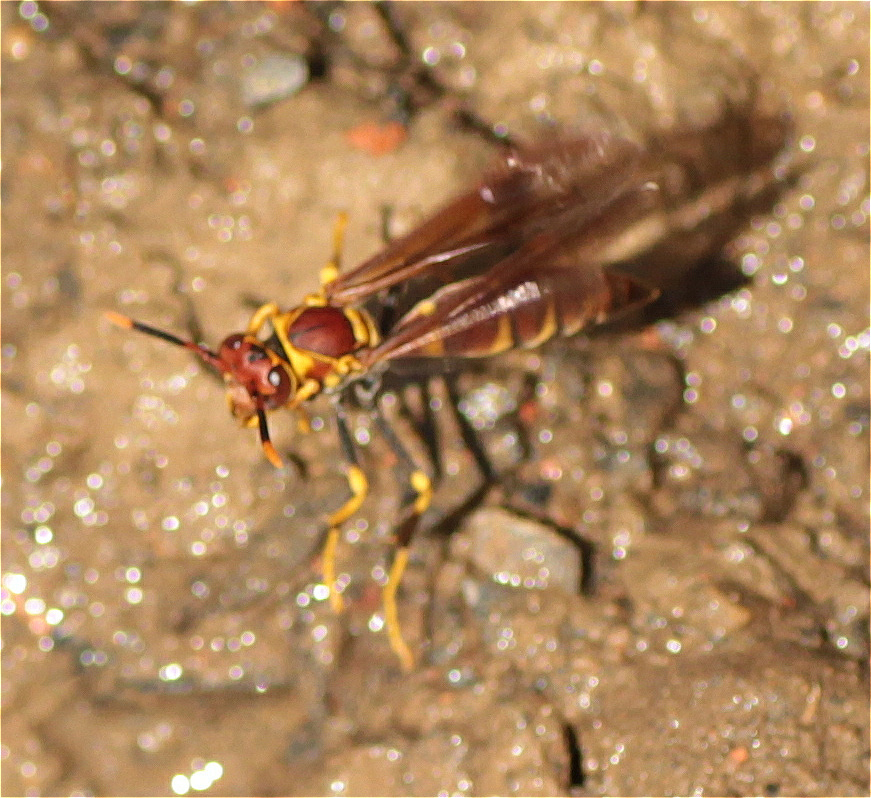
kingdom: Animalia
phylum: Arthropoda
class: Insecta
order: Hymenoptera
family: Eumenidae
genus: Polistes
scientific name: Polistes instabilis
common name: Unstable paper wasp
